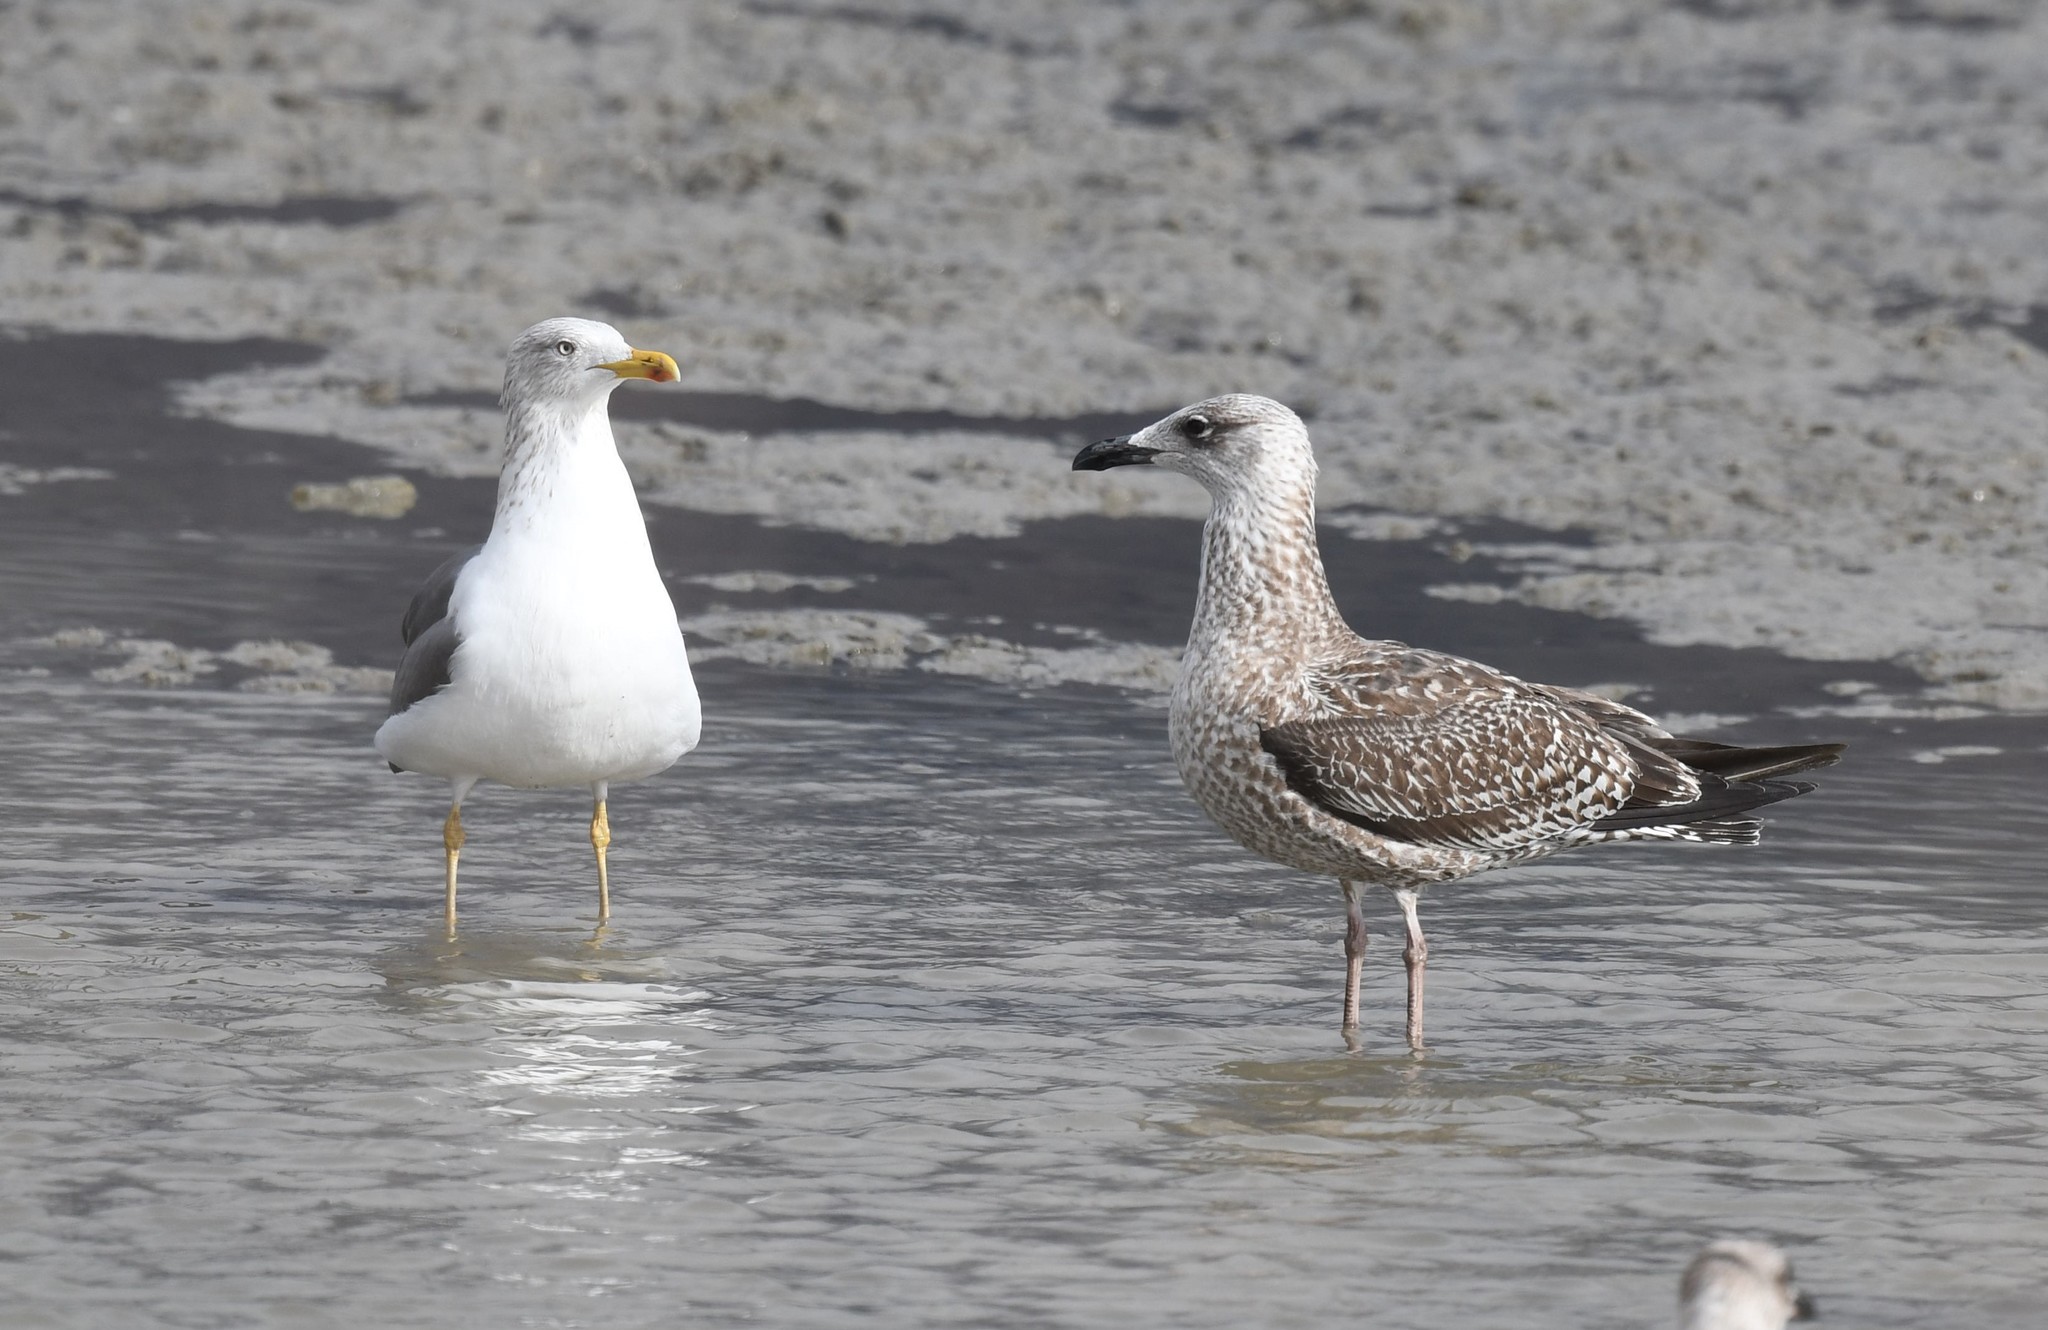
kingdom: Animalia
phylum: Chordata
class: Aves
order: Charadriiformes
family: Laridae
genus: Larus
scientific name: Larus fuscus
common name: Lesser black-backed gull
